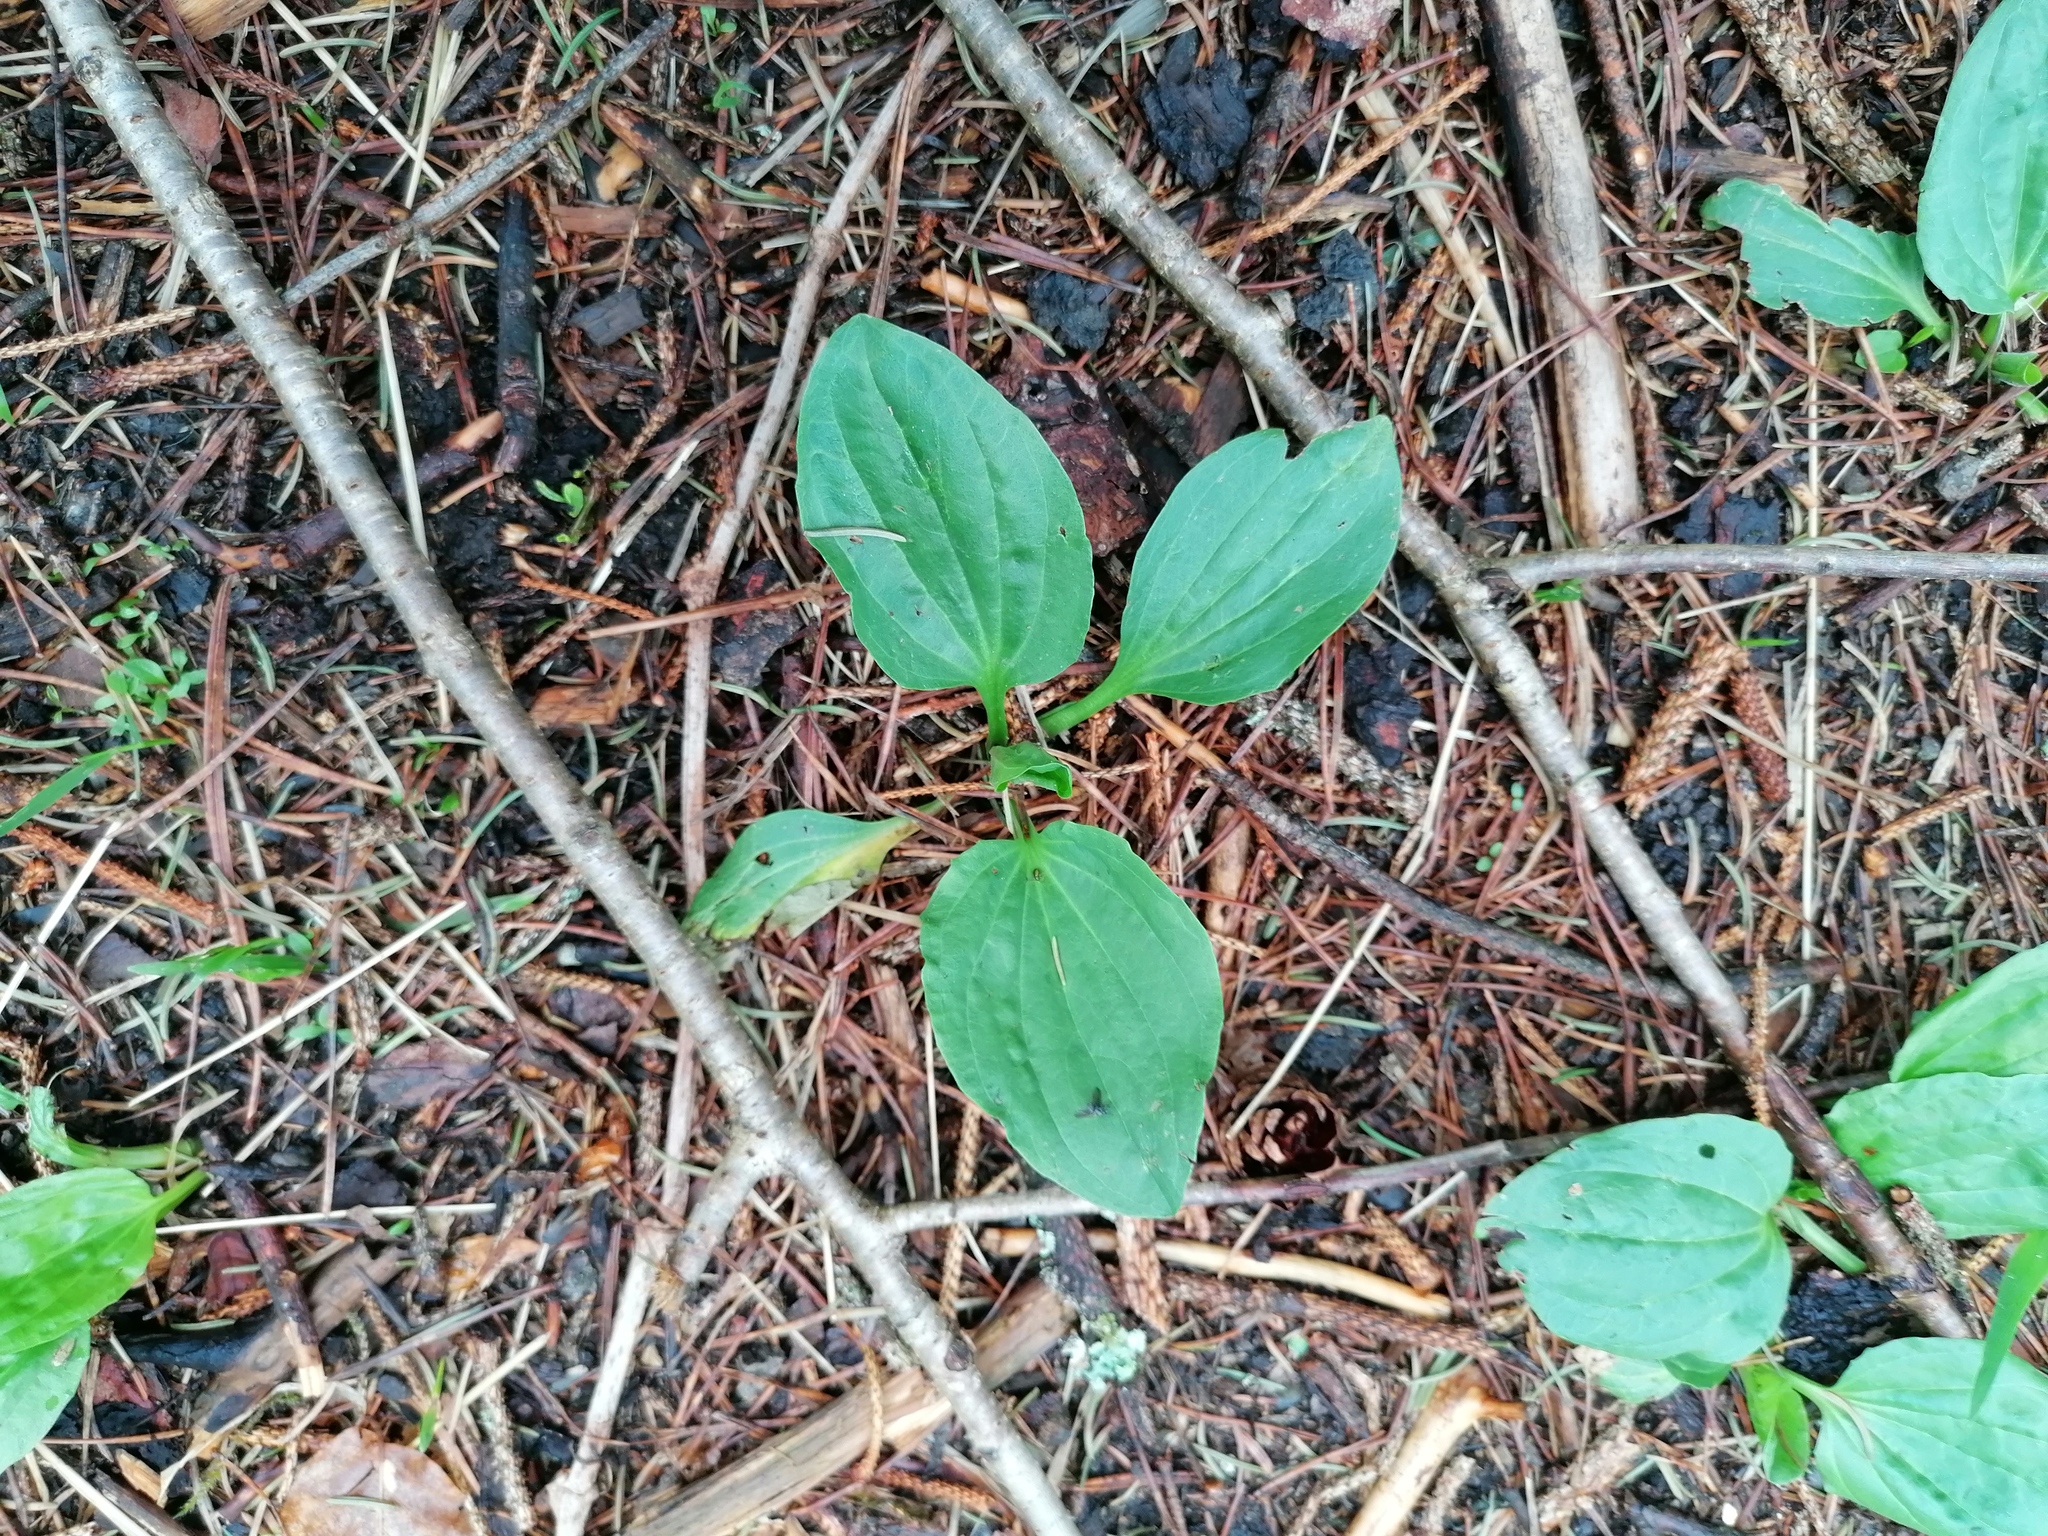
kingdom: Plantae
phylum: Tracheophyta
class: Magnoliopsida
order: Lamiales
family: Plantaginaceae
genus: Plantago
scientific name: Plantago major
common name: Common plantain
